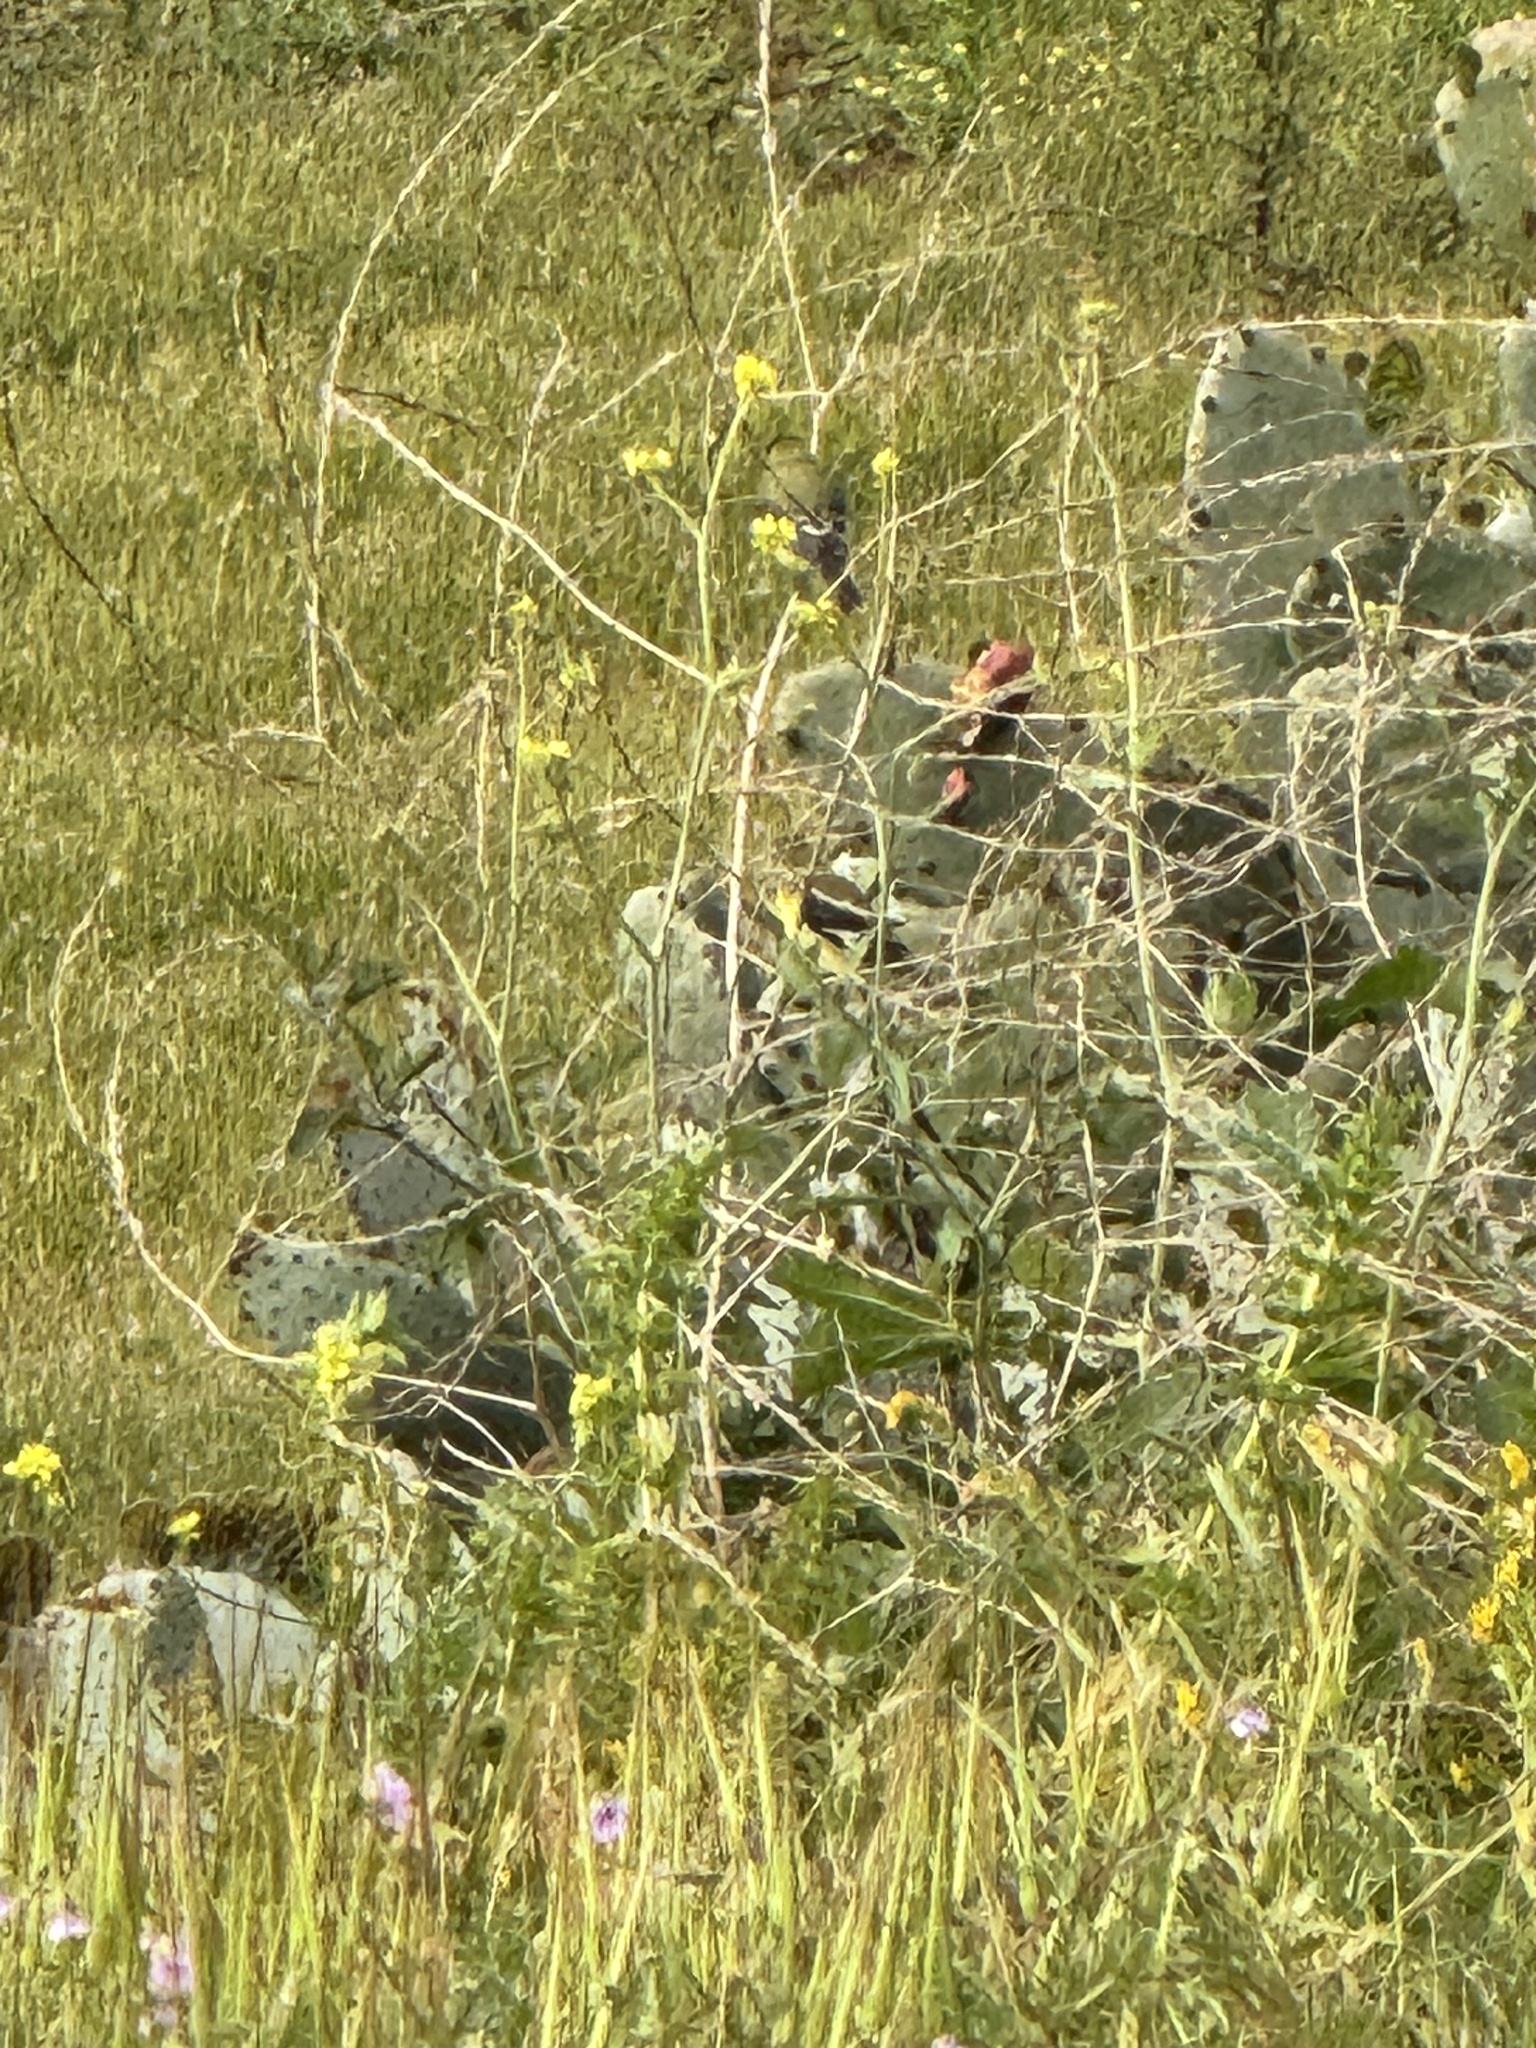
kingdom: Animalia
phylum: Chordata
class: Aves
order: Passeriformes
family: Fringillidae
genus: Spinus
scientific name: Spinus psaltria
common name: Lesser goldfinch
